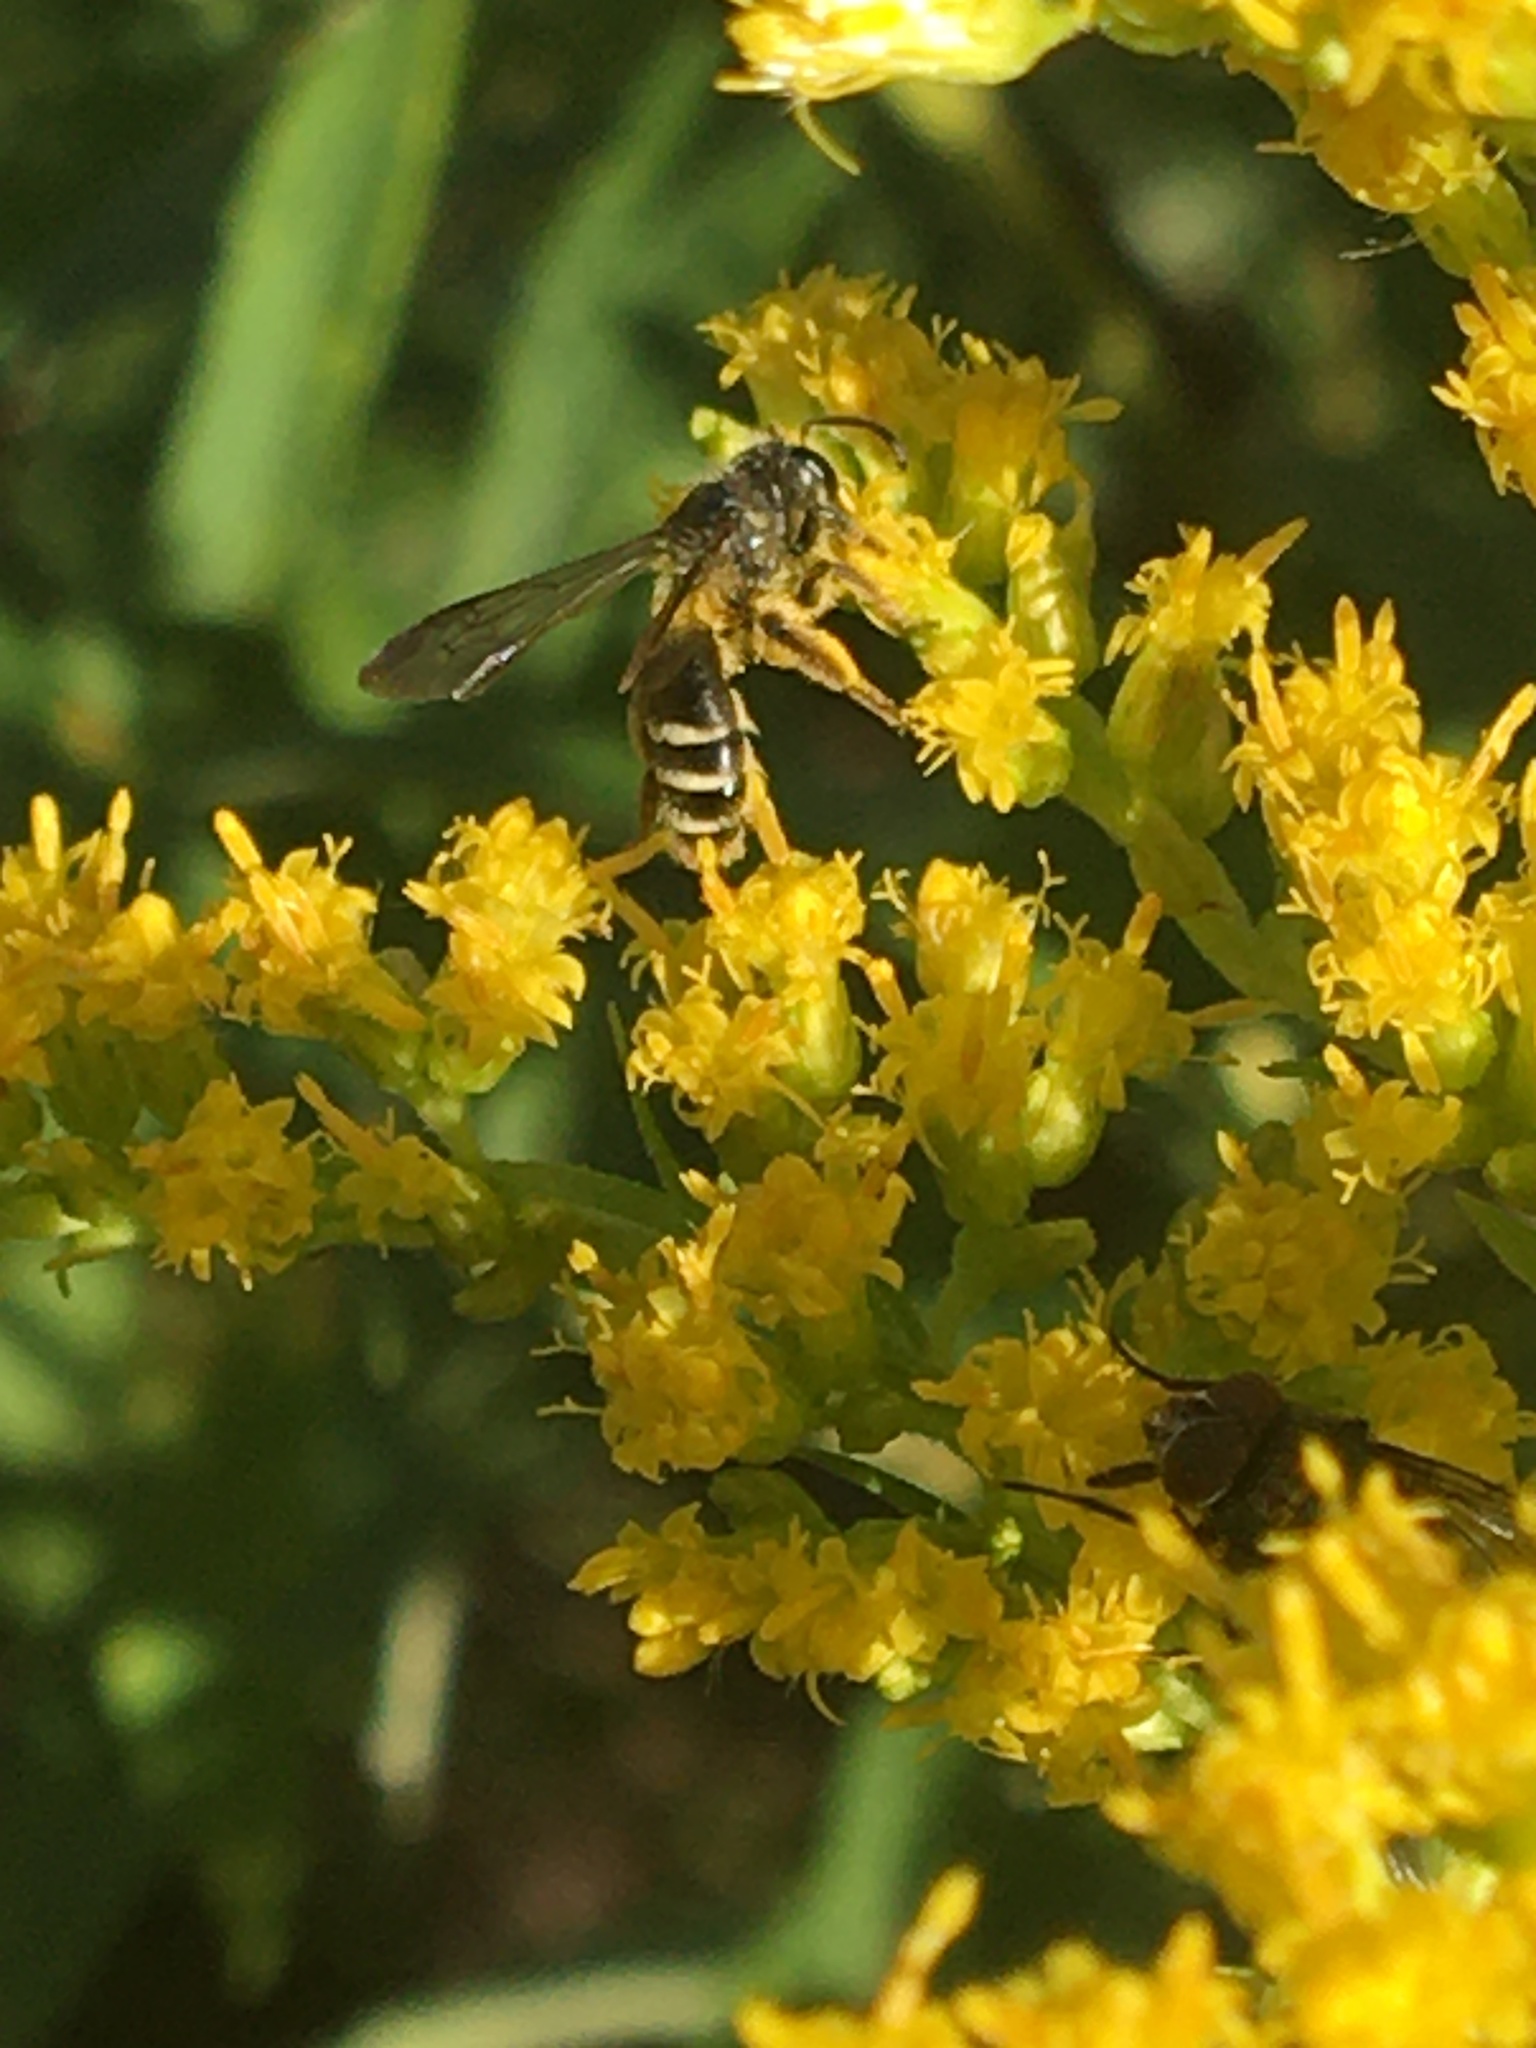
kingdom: Animalia
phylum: Arthropoda
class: Insecta
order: Hymenoptera
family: Andrenidae
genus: Andrena
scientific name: Andrena nubecula
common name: Cloudy-winged mining bee
